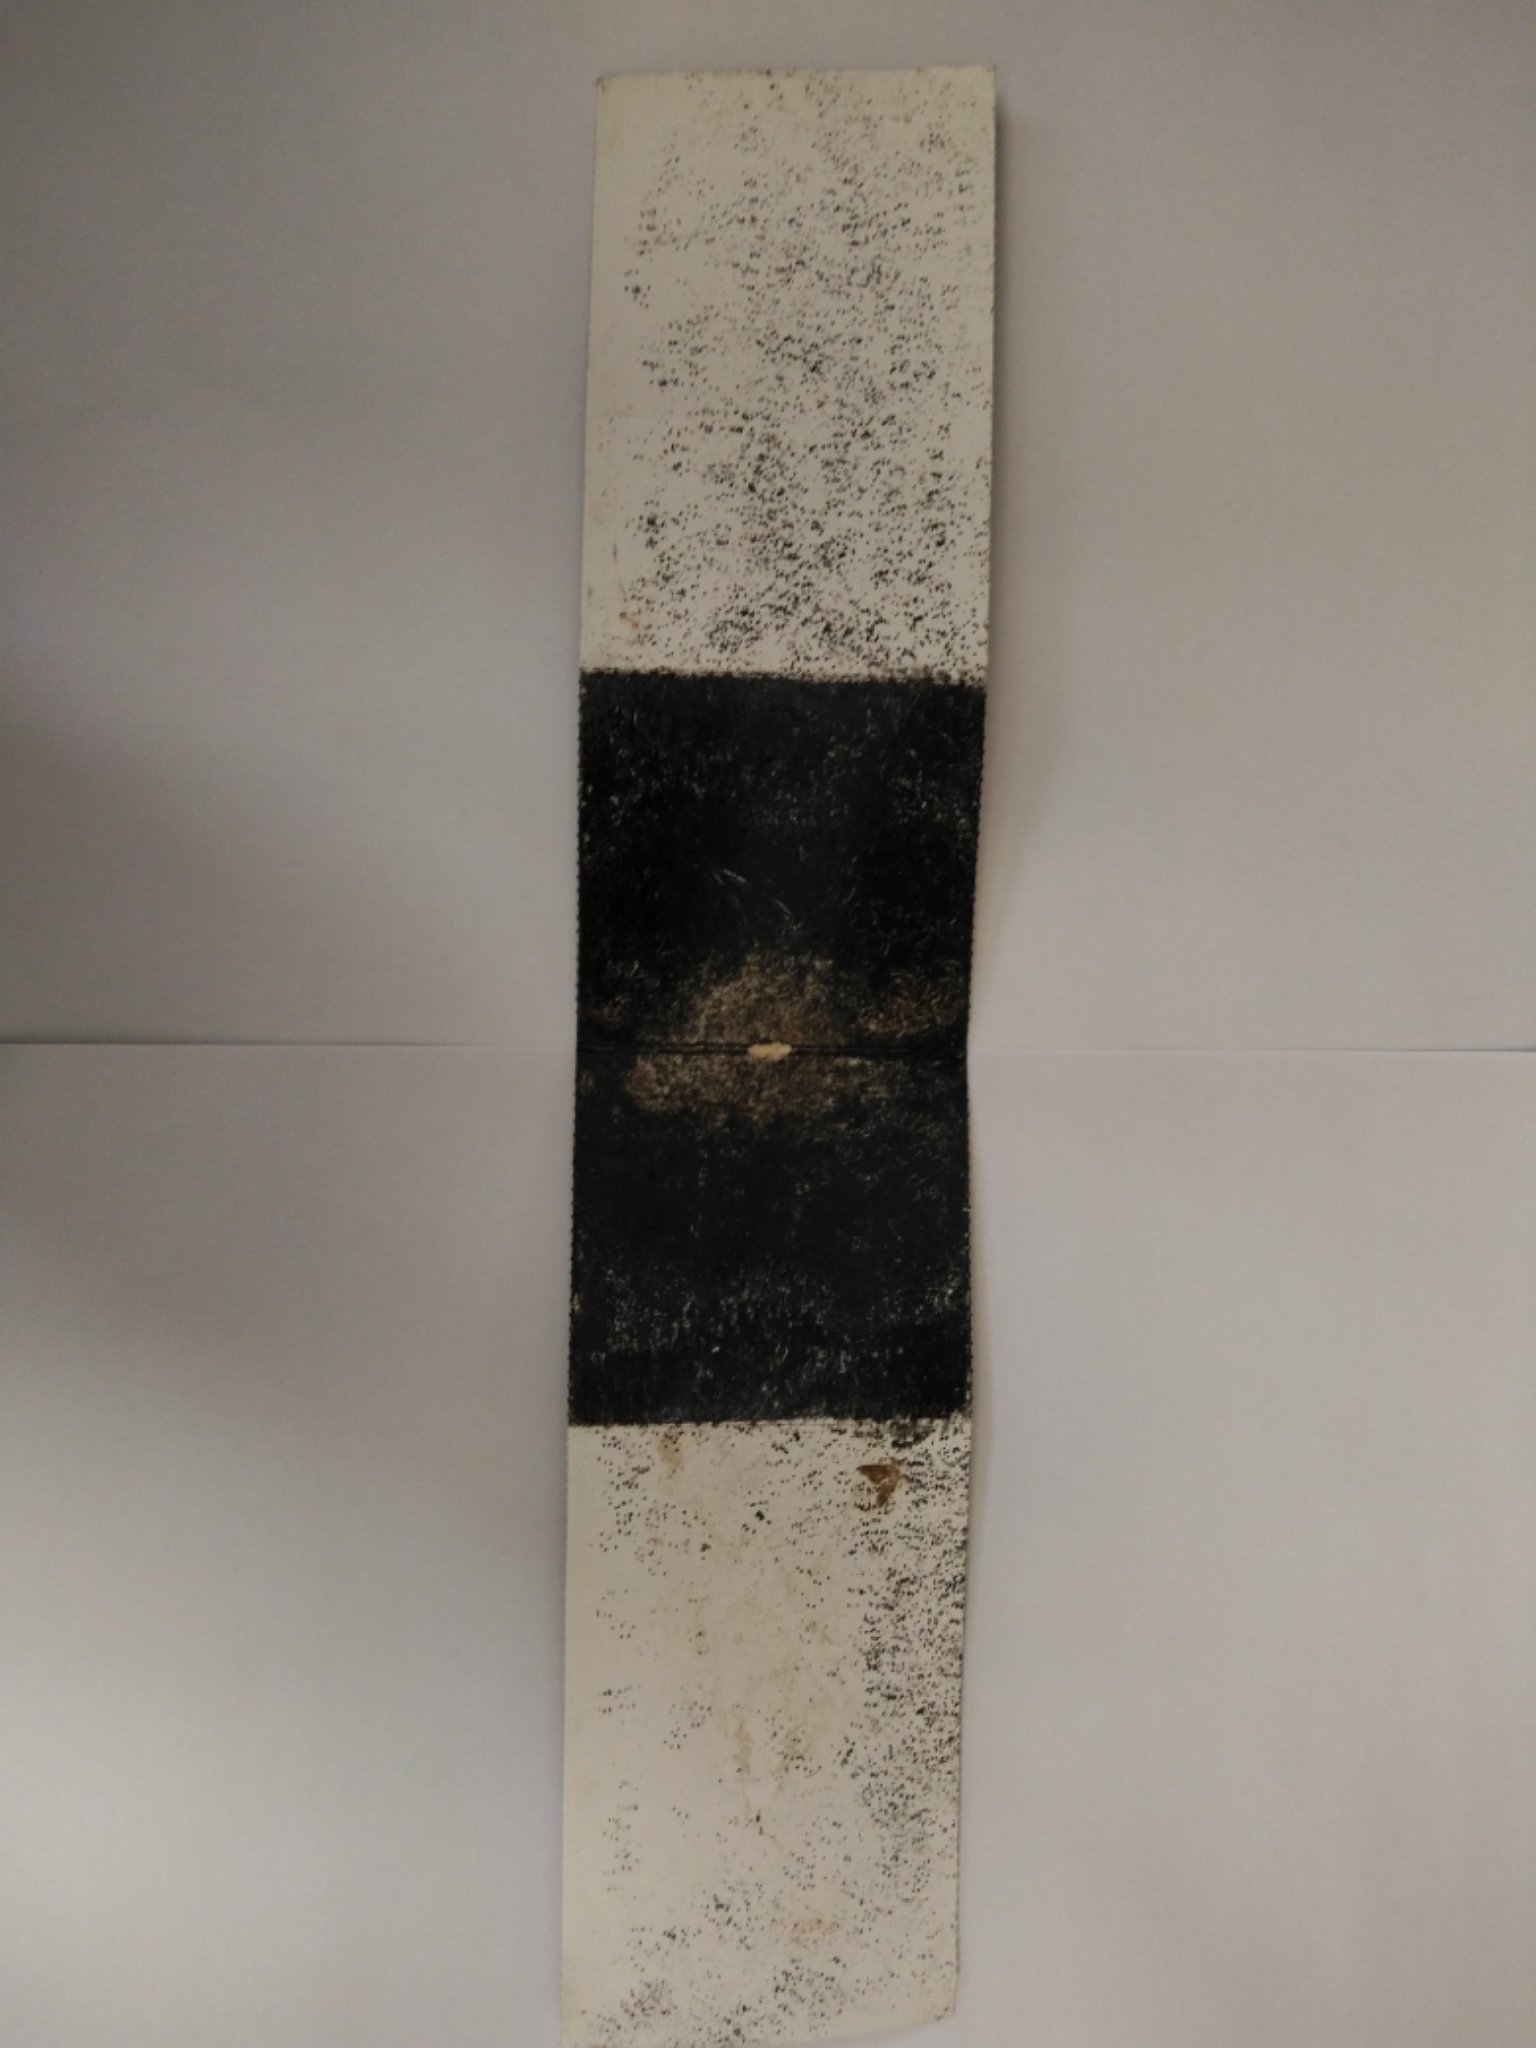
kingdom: Animalia
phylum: Chordata
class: Mammalia
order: Rodentia
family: Muridae
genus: Mus
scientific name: Mus musculus
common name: House mouse
